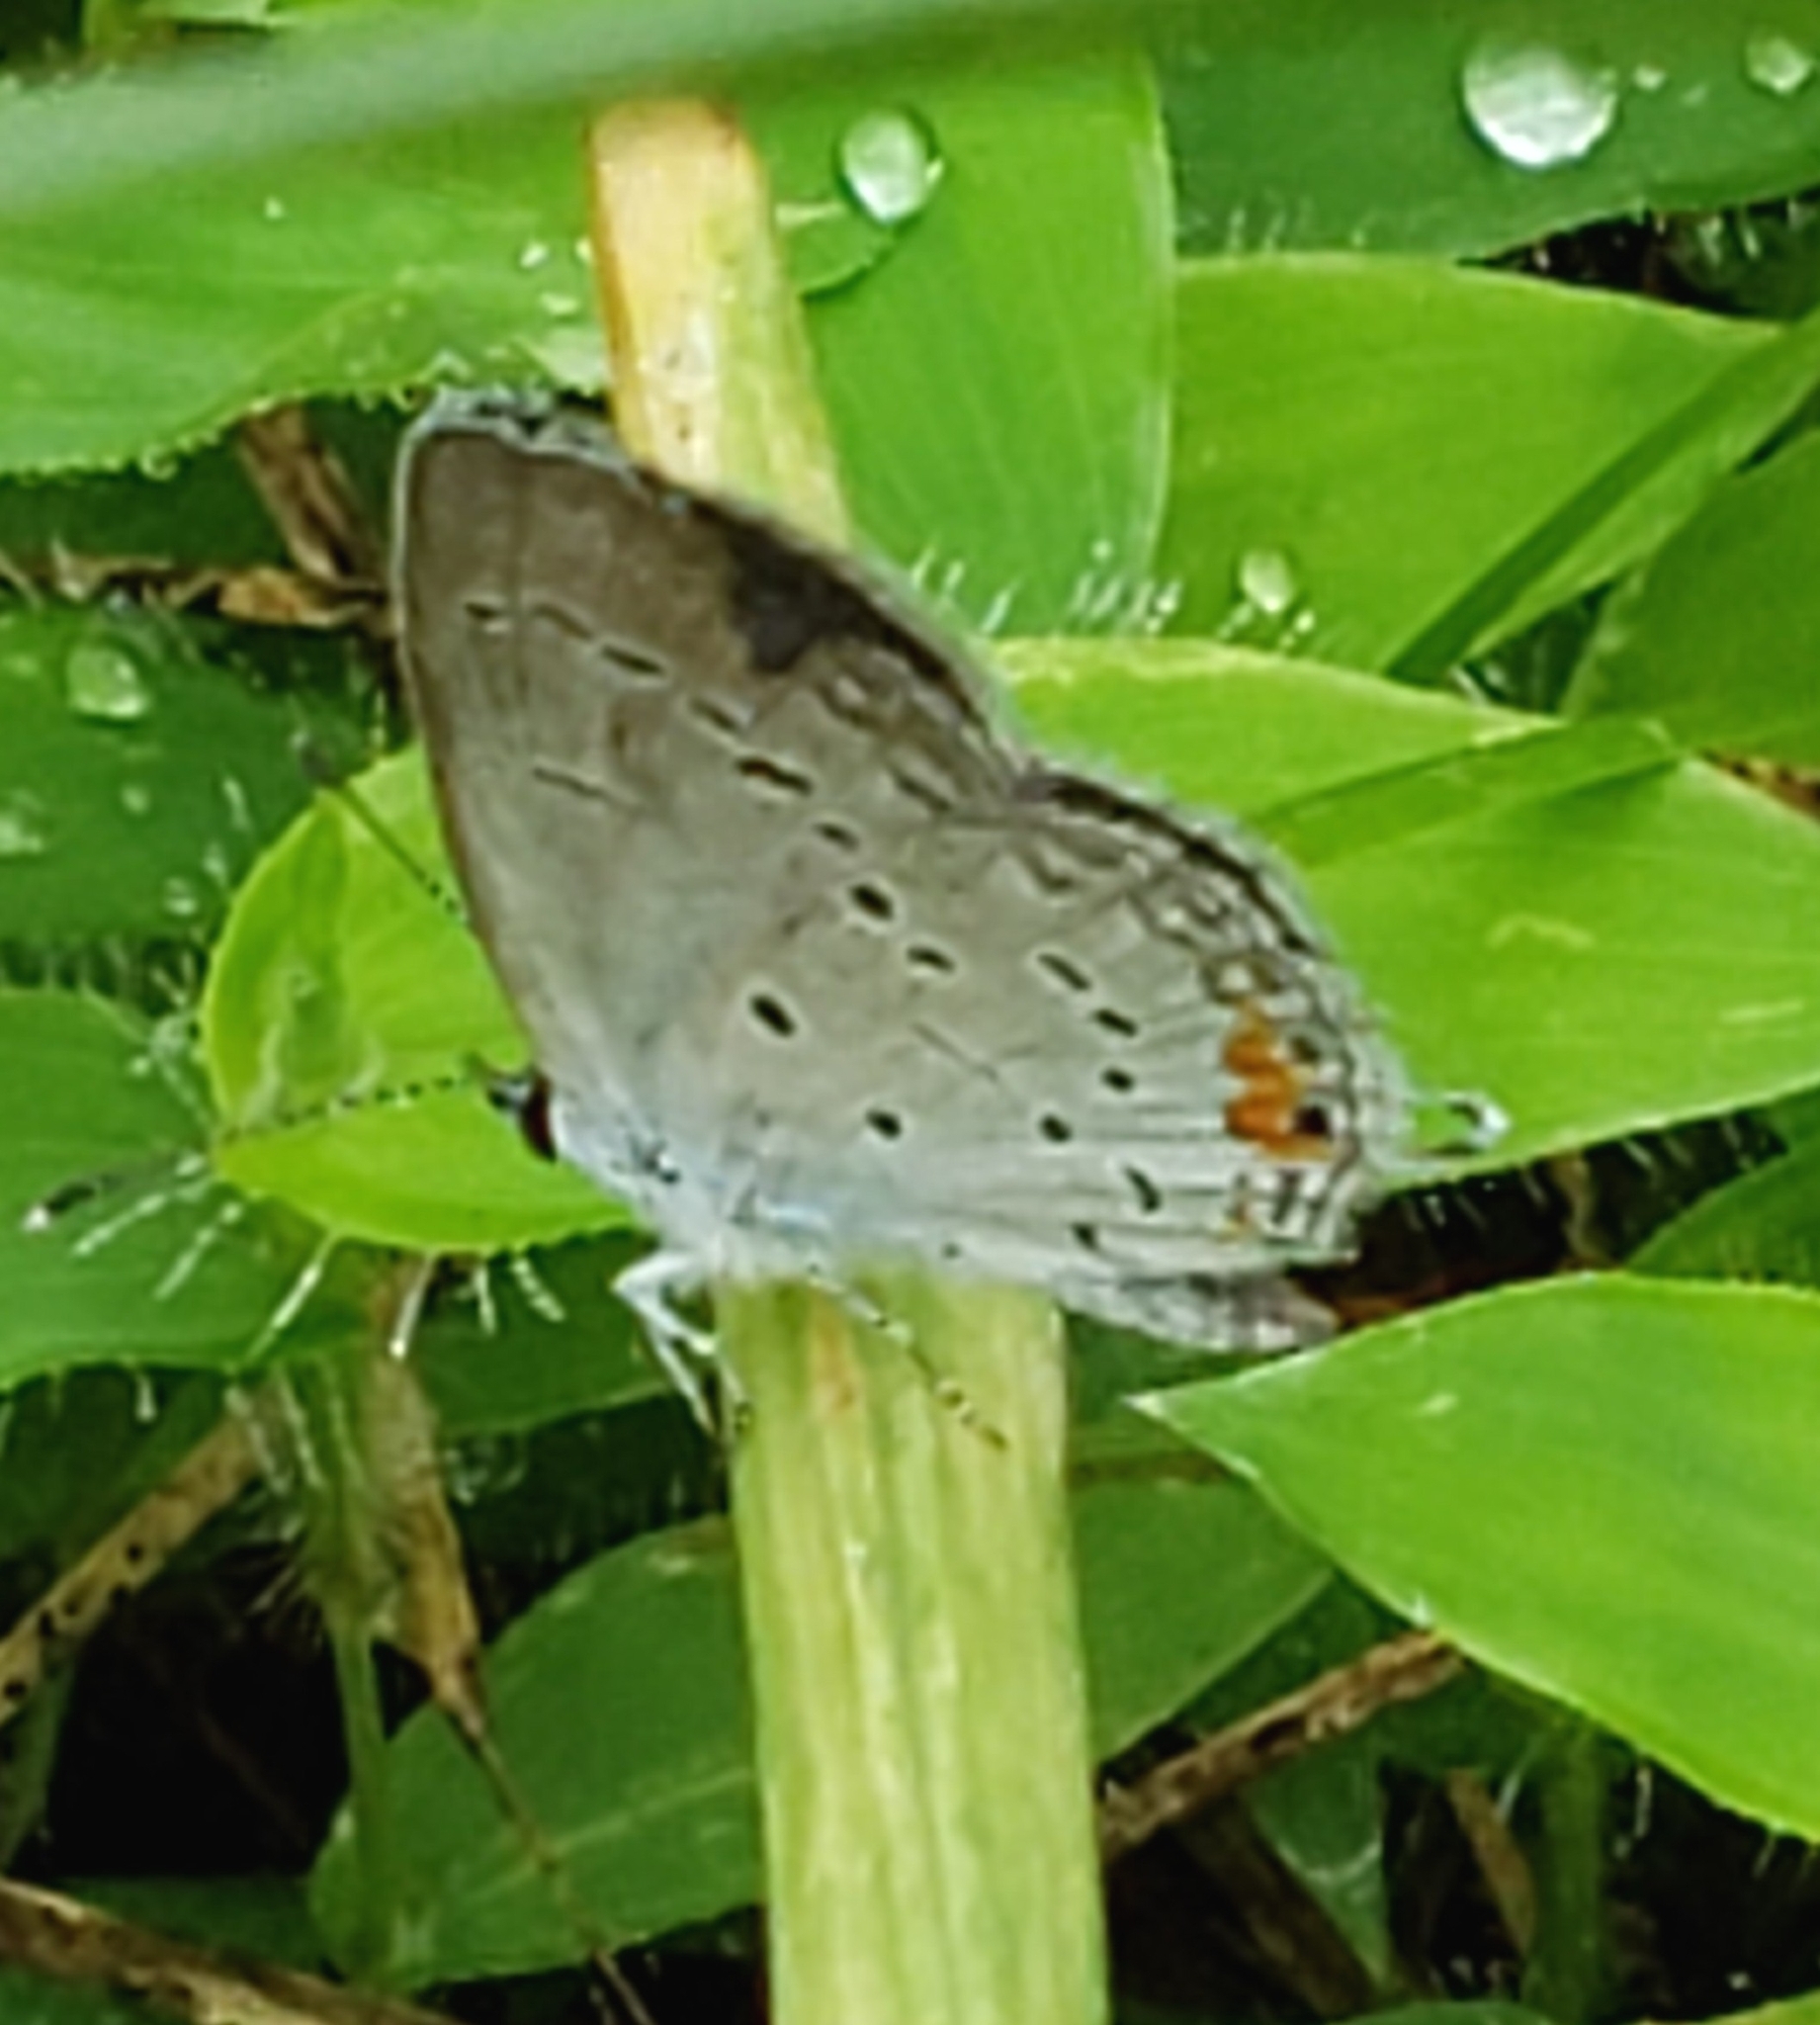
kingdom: Animalia
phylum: Arthropoda
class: Insecta
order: Lepidoptera
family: Lycaenidae
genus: Elkalyce
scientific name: Elkalyce comyntas
